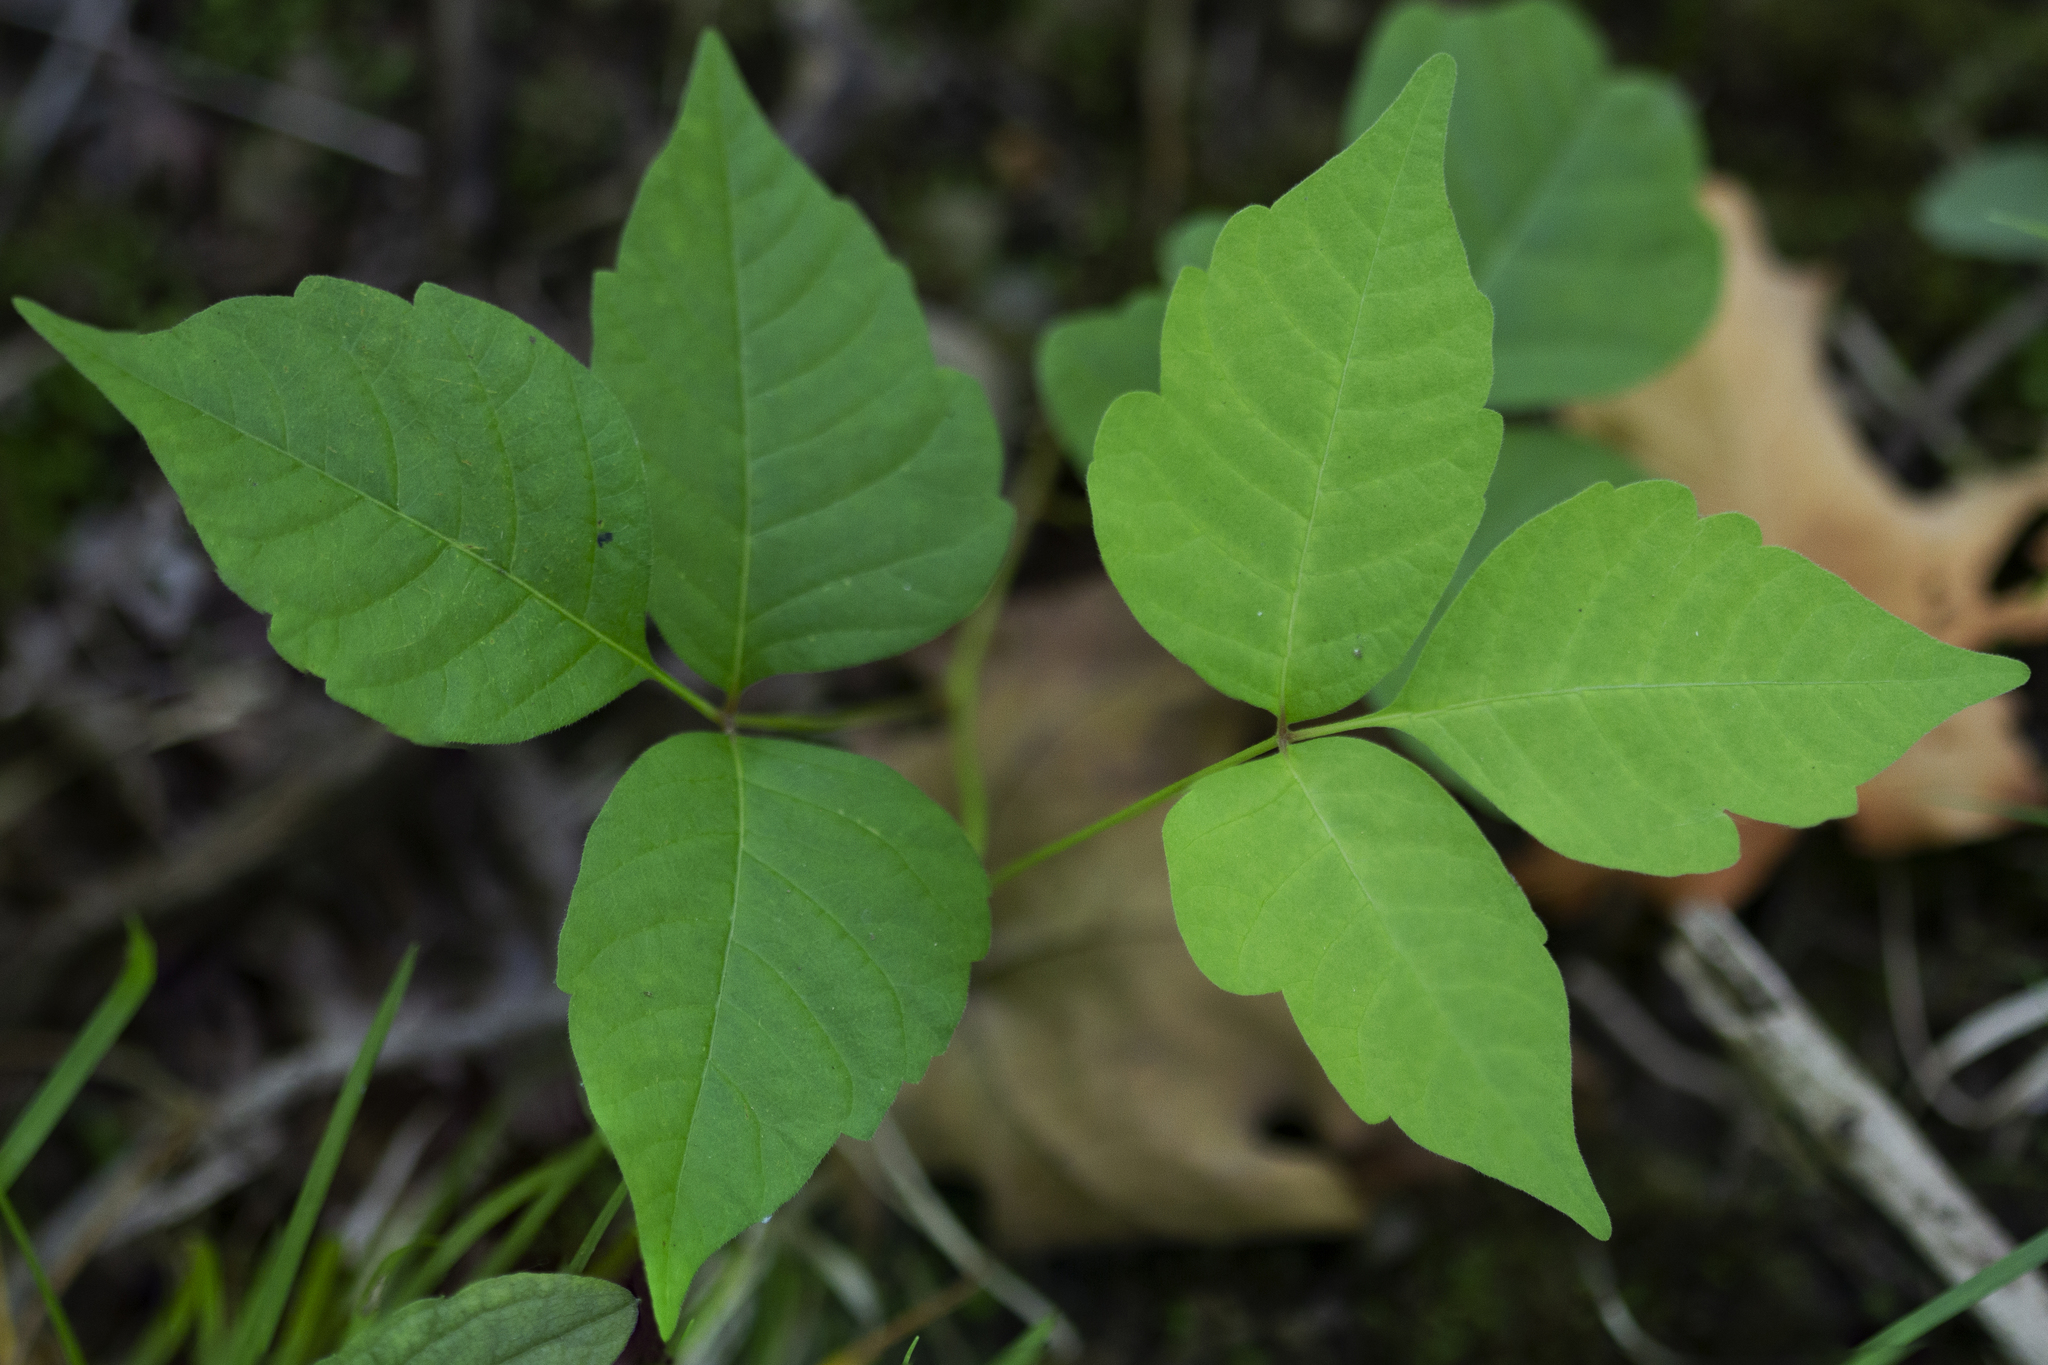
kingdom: Plantae
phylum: Tracheophyta
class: Magnoliopsida
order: Sapindales
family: Anacardiaceae
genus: Toxicodendron
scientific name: Toxicodendron radicans
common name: Poison ivy
